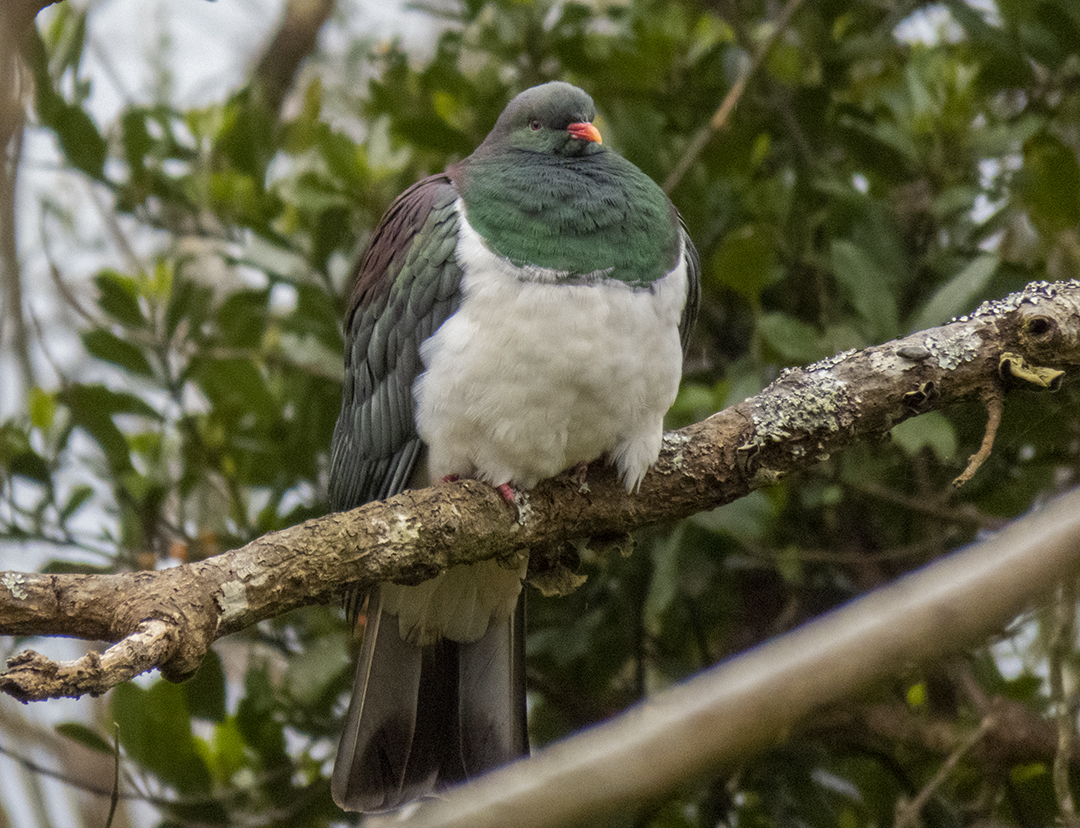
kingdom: Animalia
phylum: Chordata
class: Aves
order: Columbiformes
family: Columbidae
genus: Hemiphaga
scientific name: Hemiphaga novaeseelandiae
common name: New zealand pigeon
